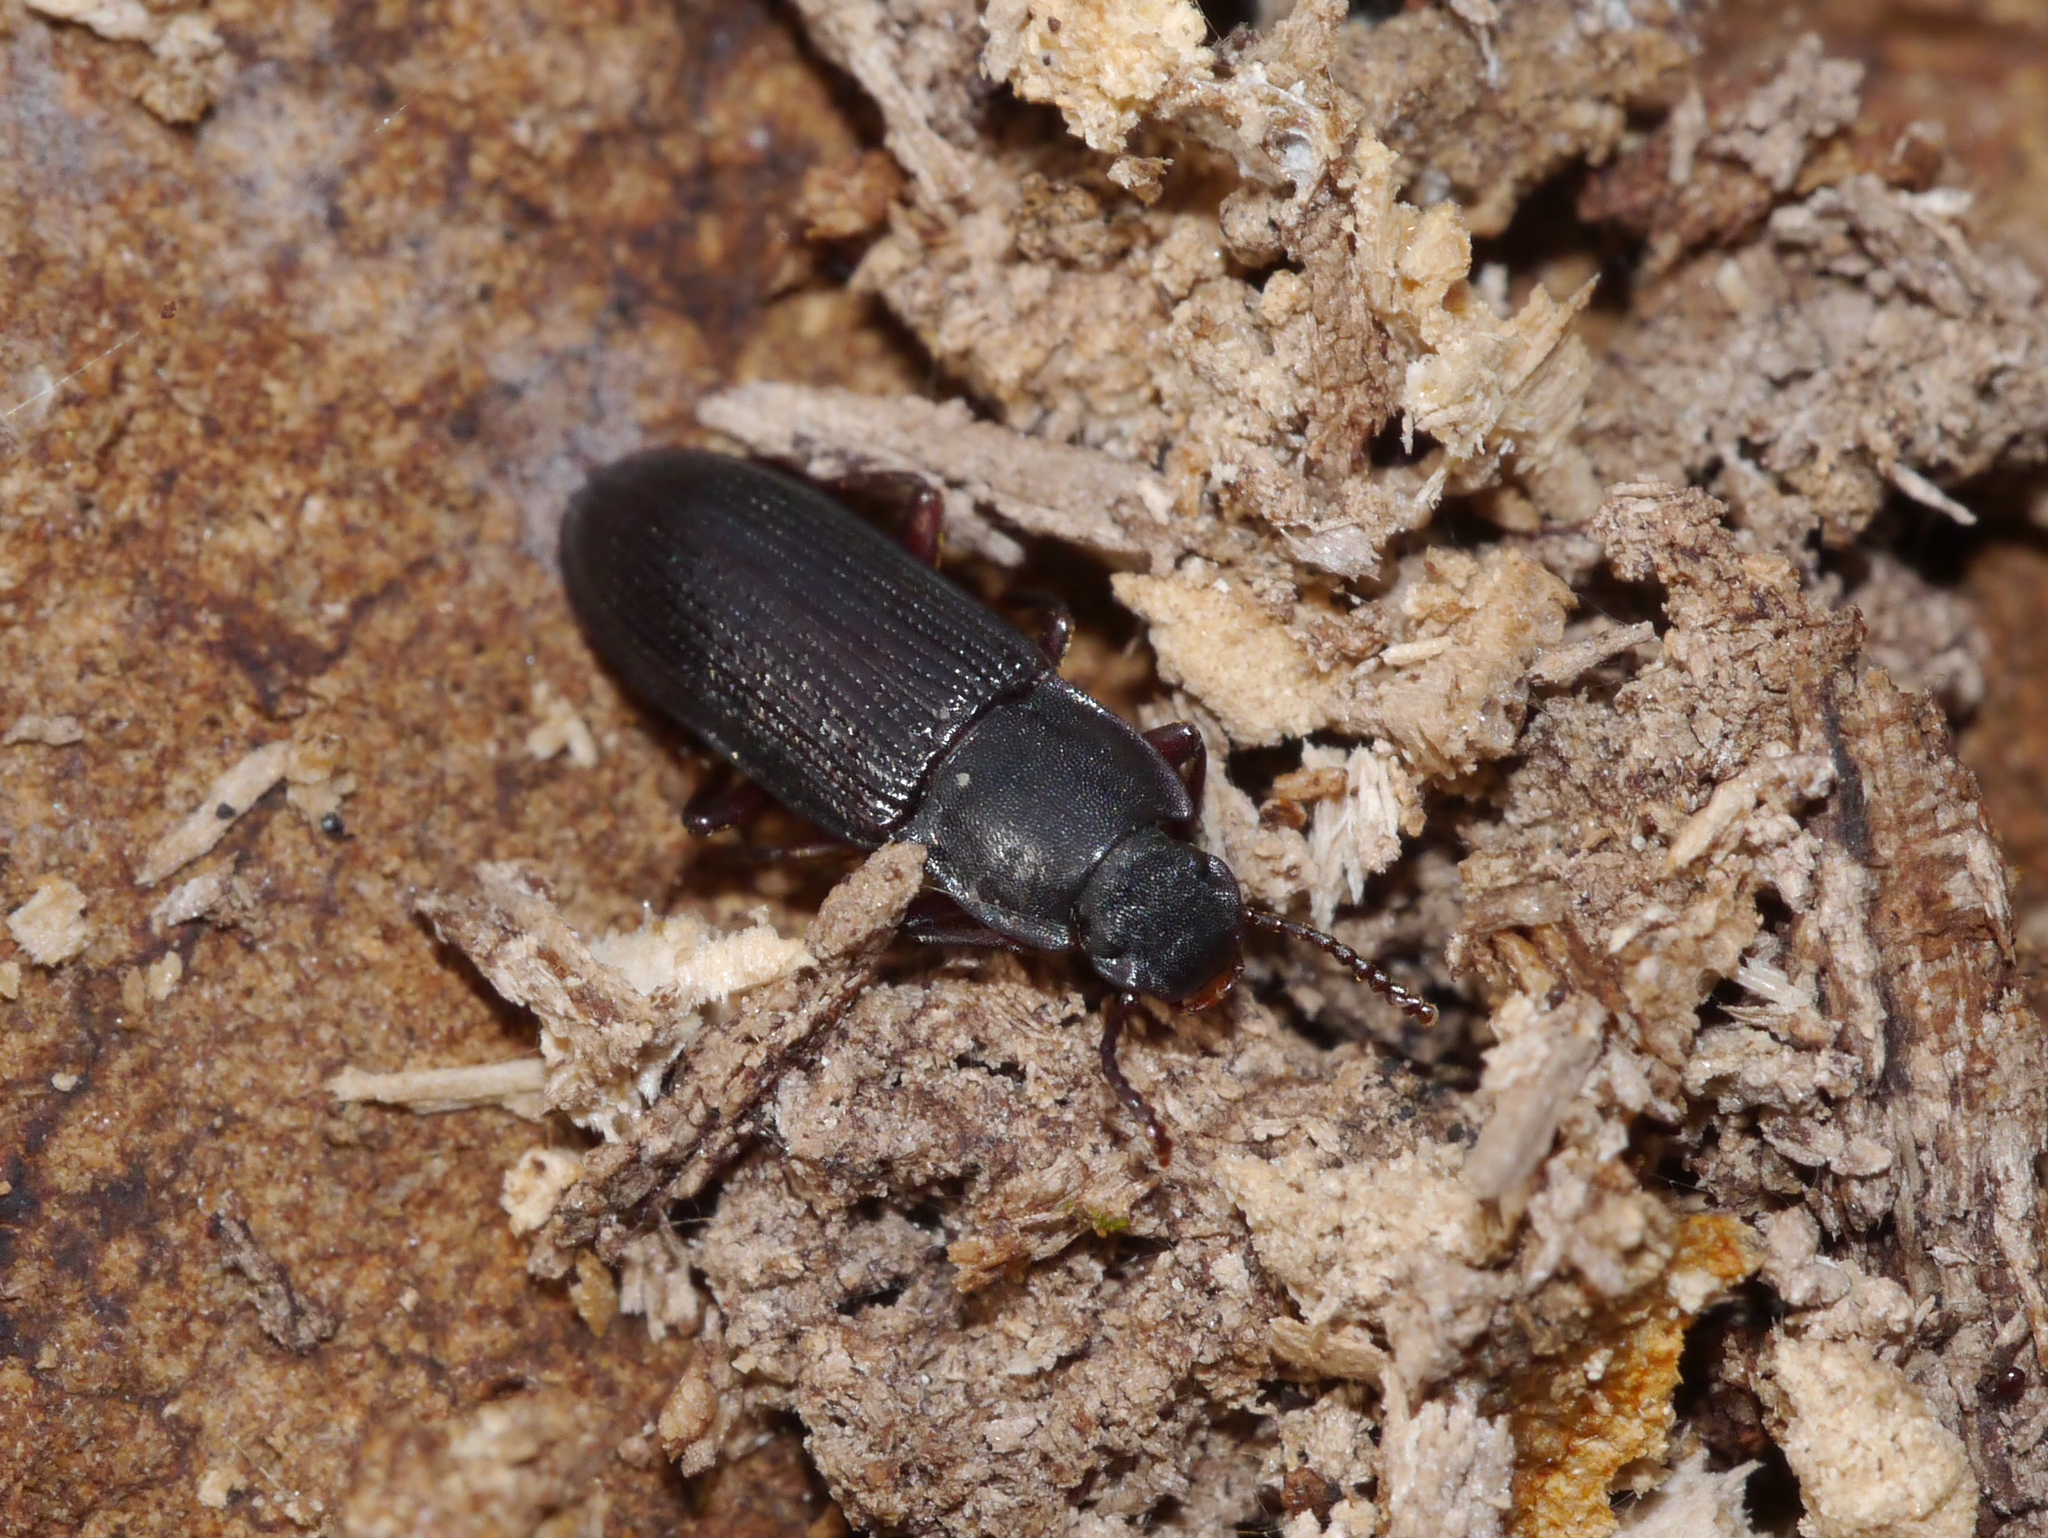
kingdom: Animalia
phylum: Arthropoda
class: Insecta
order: Coleoptera
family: Tenebrionidae
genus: Idiobates
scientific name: Idiobates castaneus
